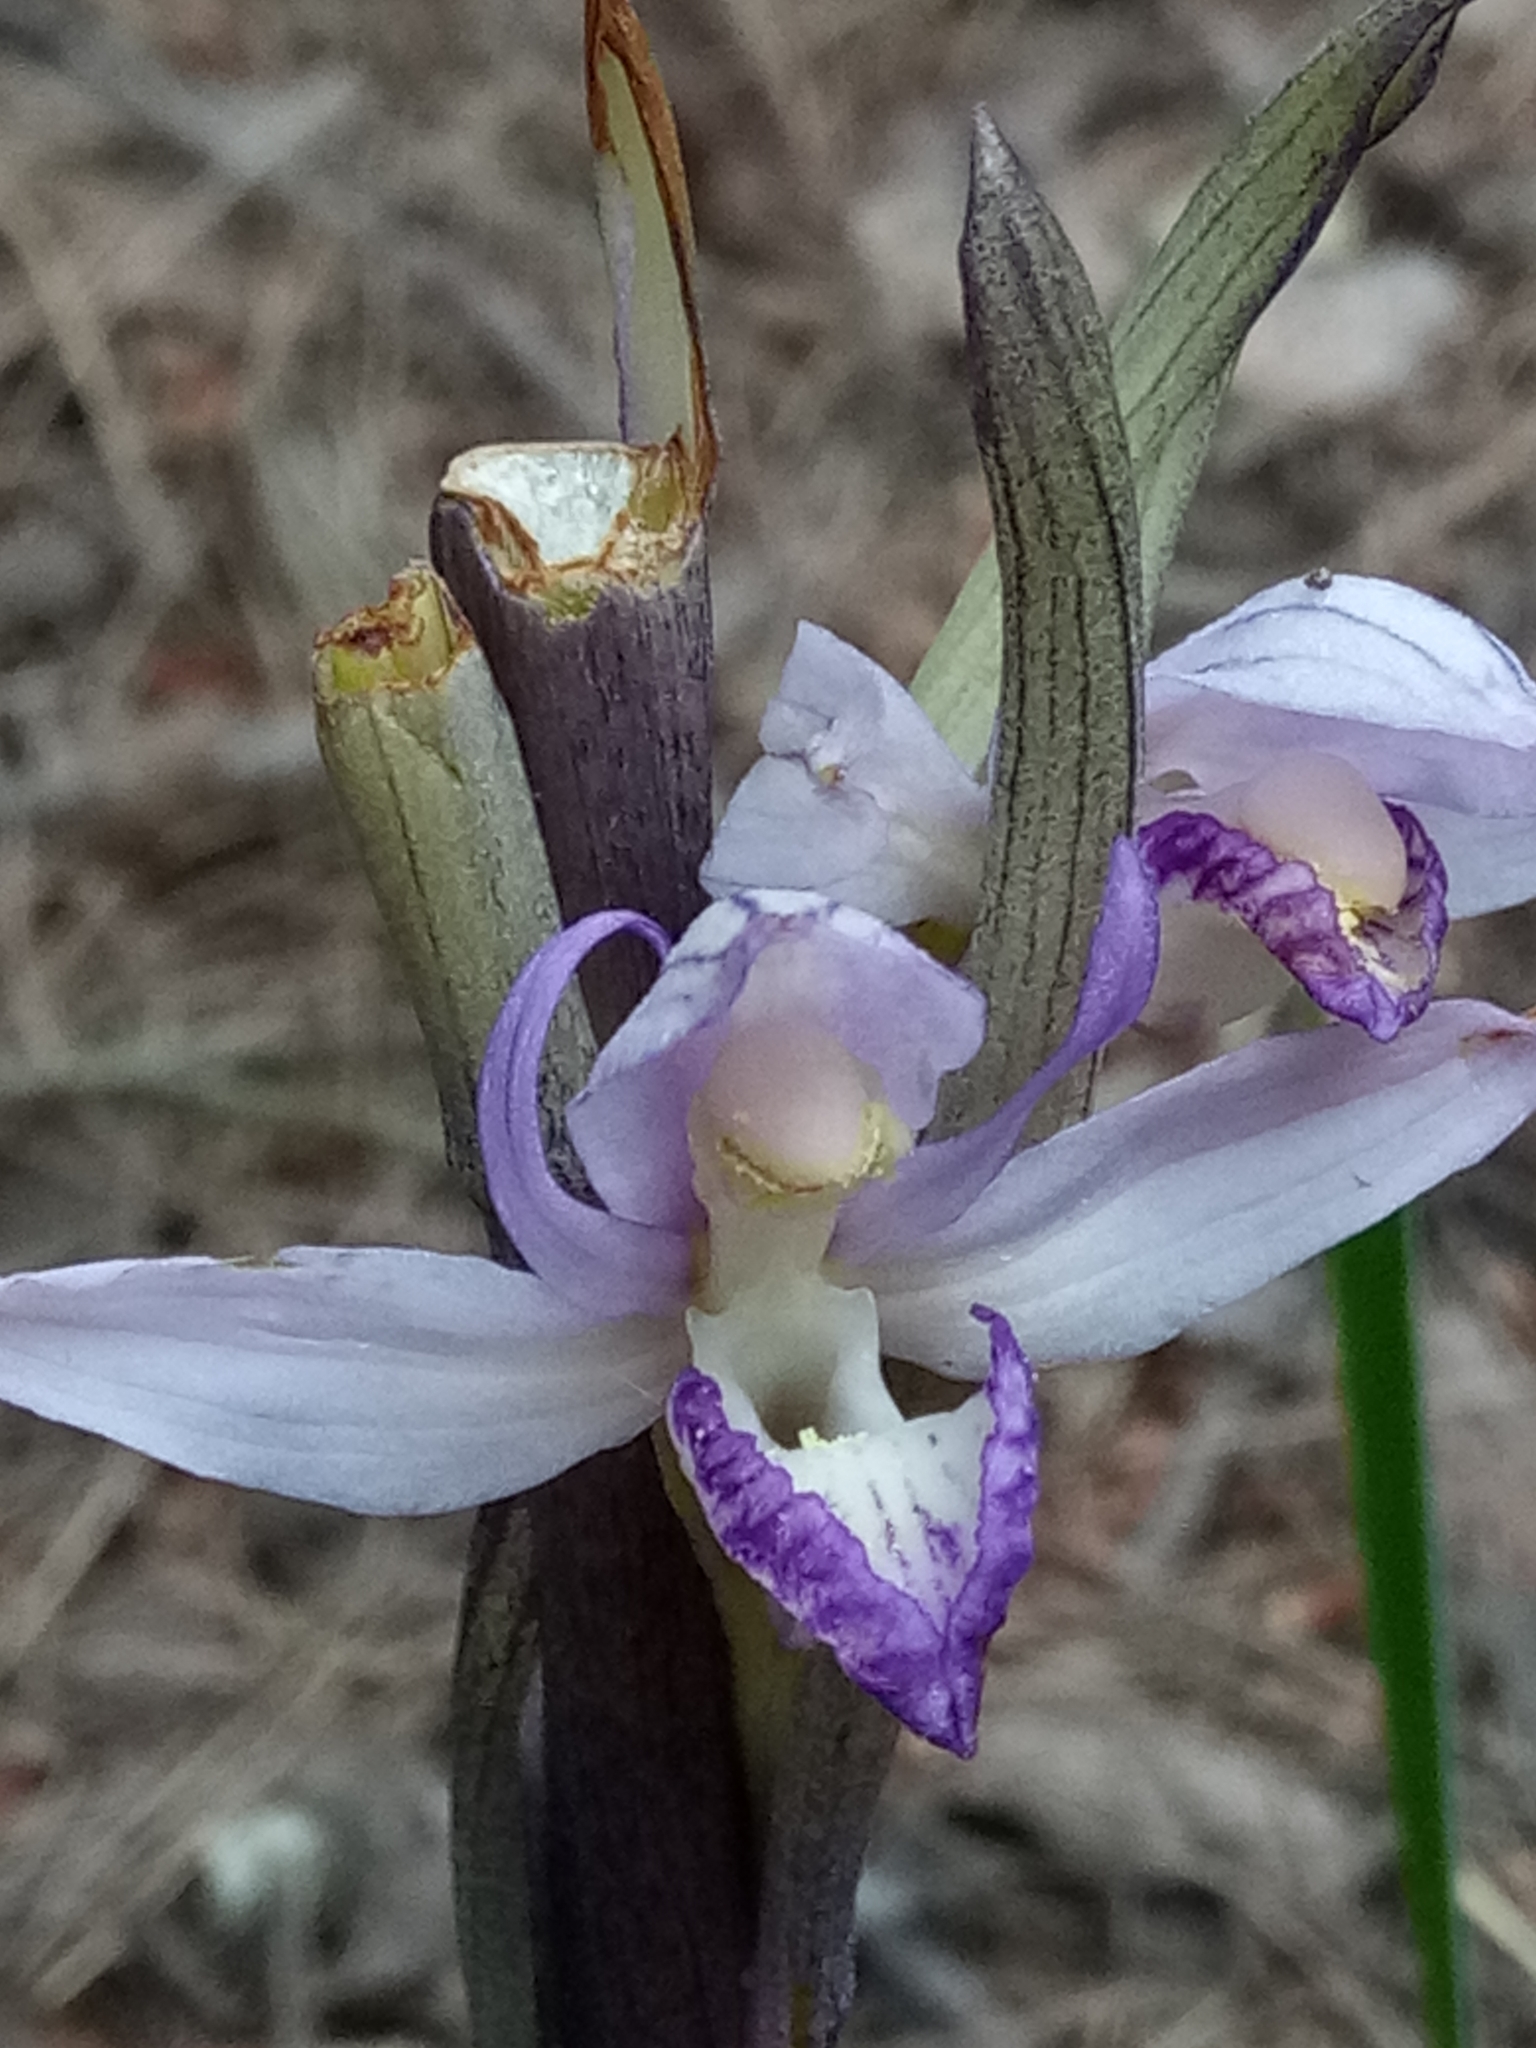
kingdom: Plantae
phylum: Tracheophyta
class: Liliopsida
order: Asparagales
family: Orchidaceae
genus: Limodorum
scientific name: Limodorum abortivum
